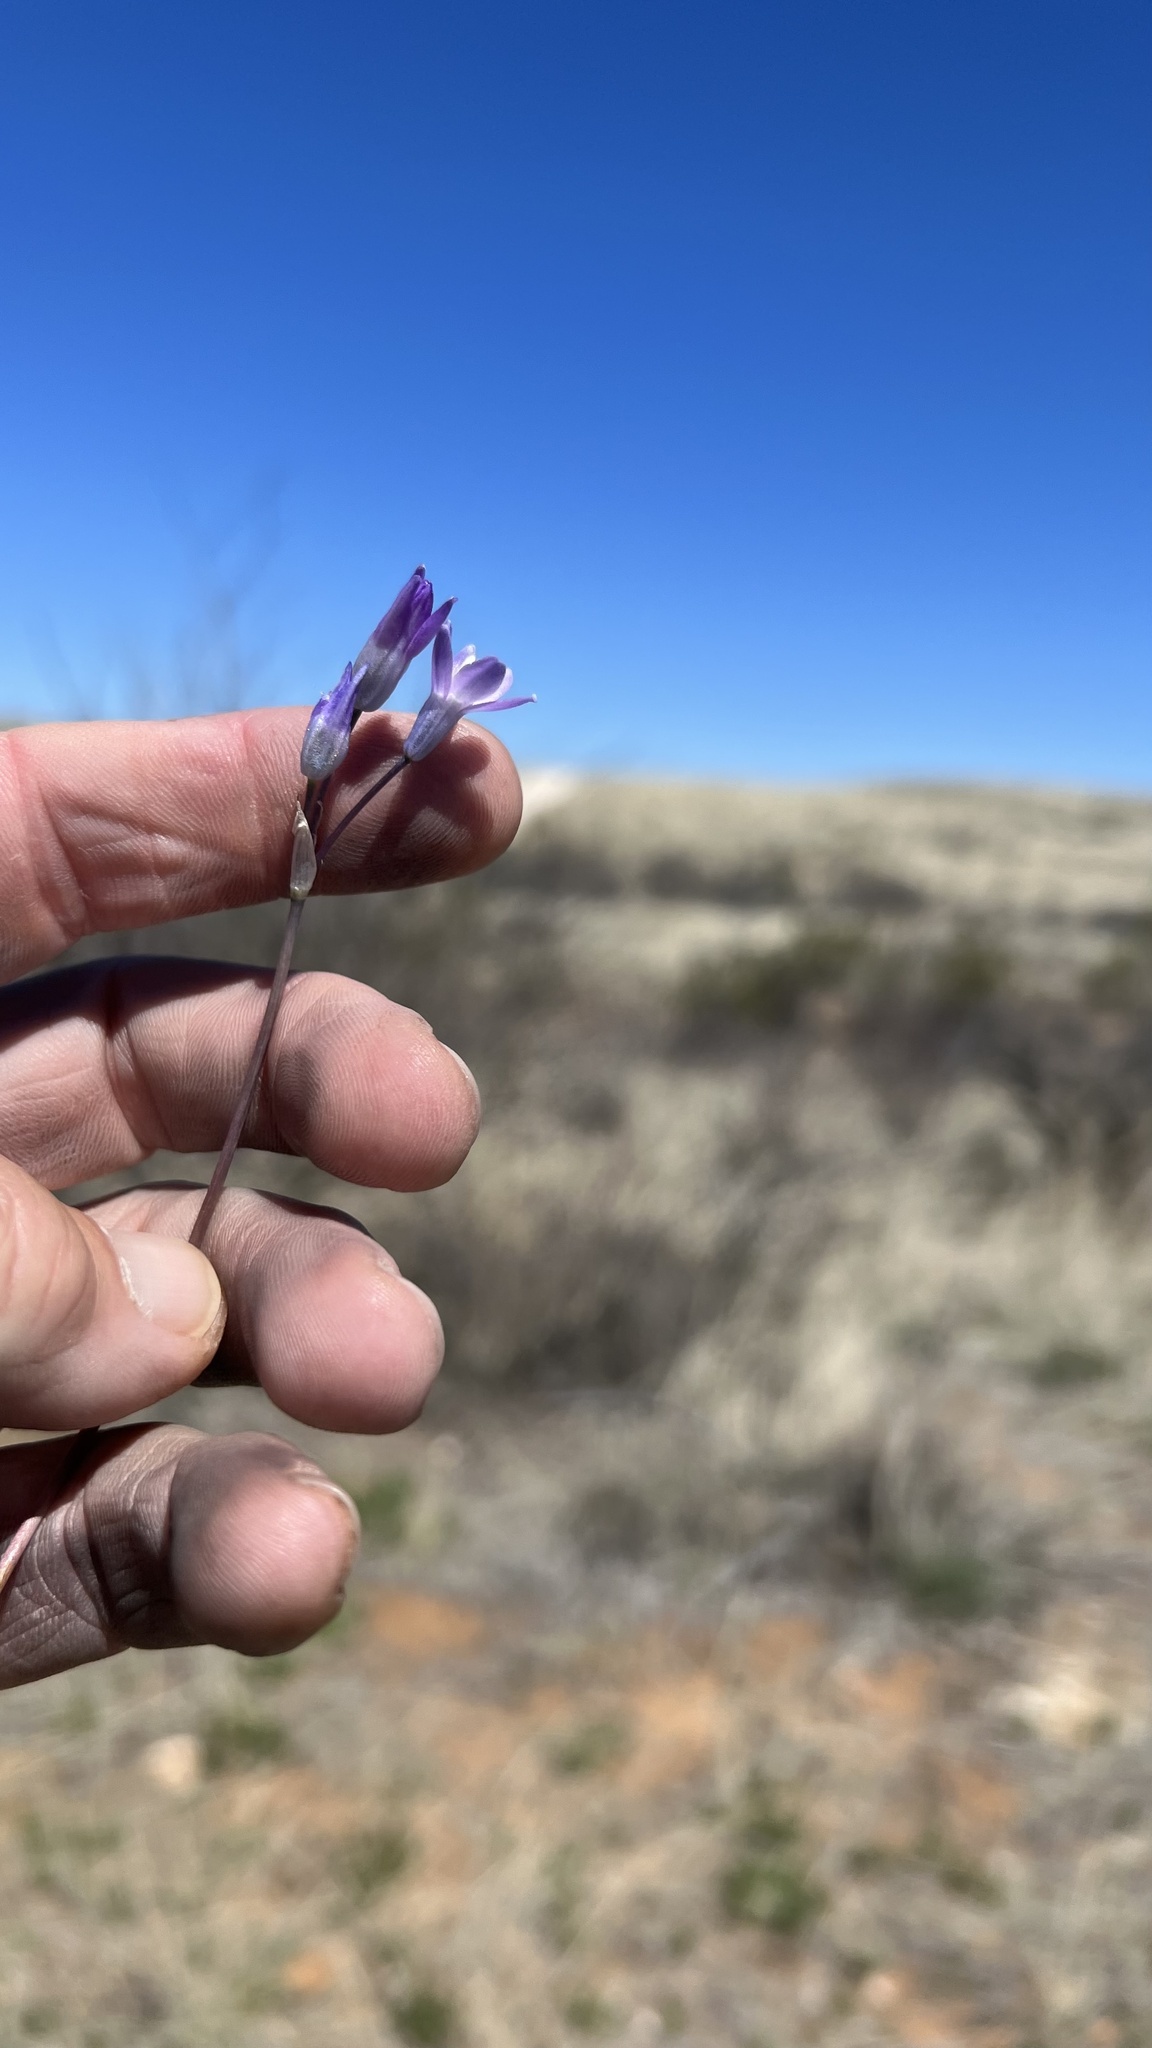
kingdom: Plantae
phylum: Tracheophyta
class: Liliopsida
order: Asparagales
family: Asparagaceae
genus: Dipterostemon
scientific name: Dipterostemon capitatus
